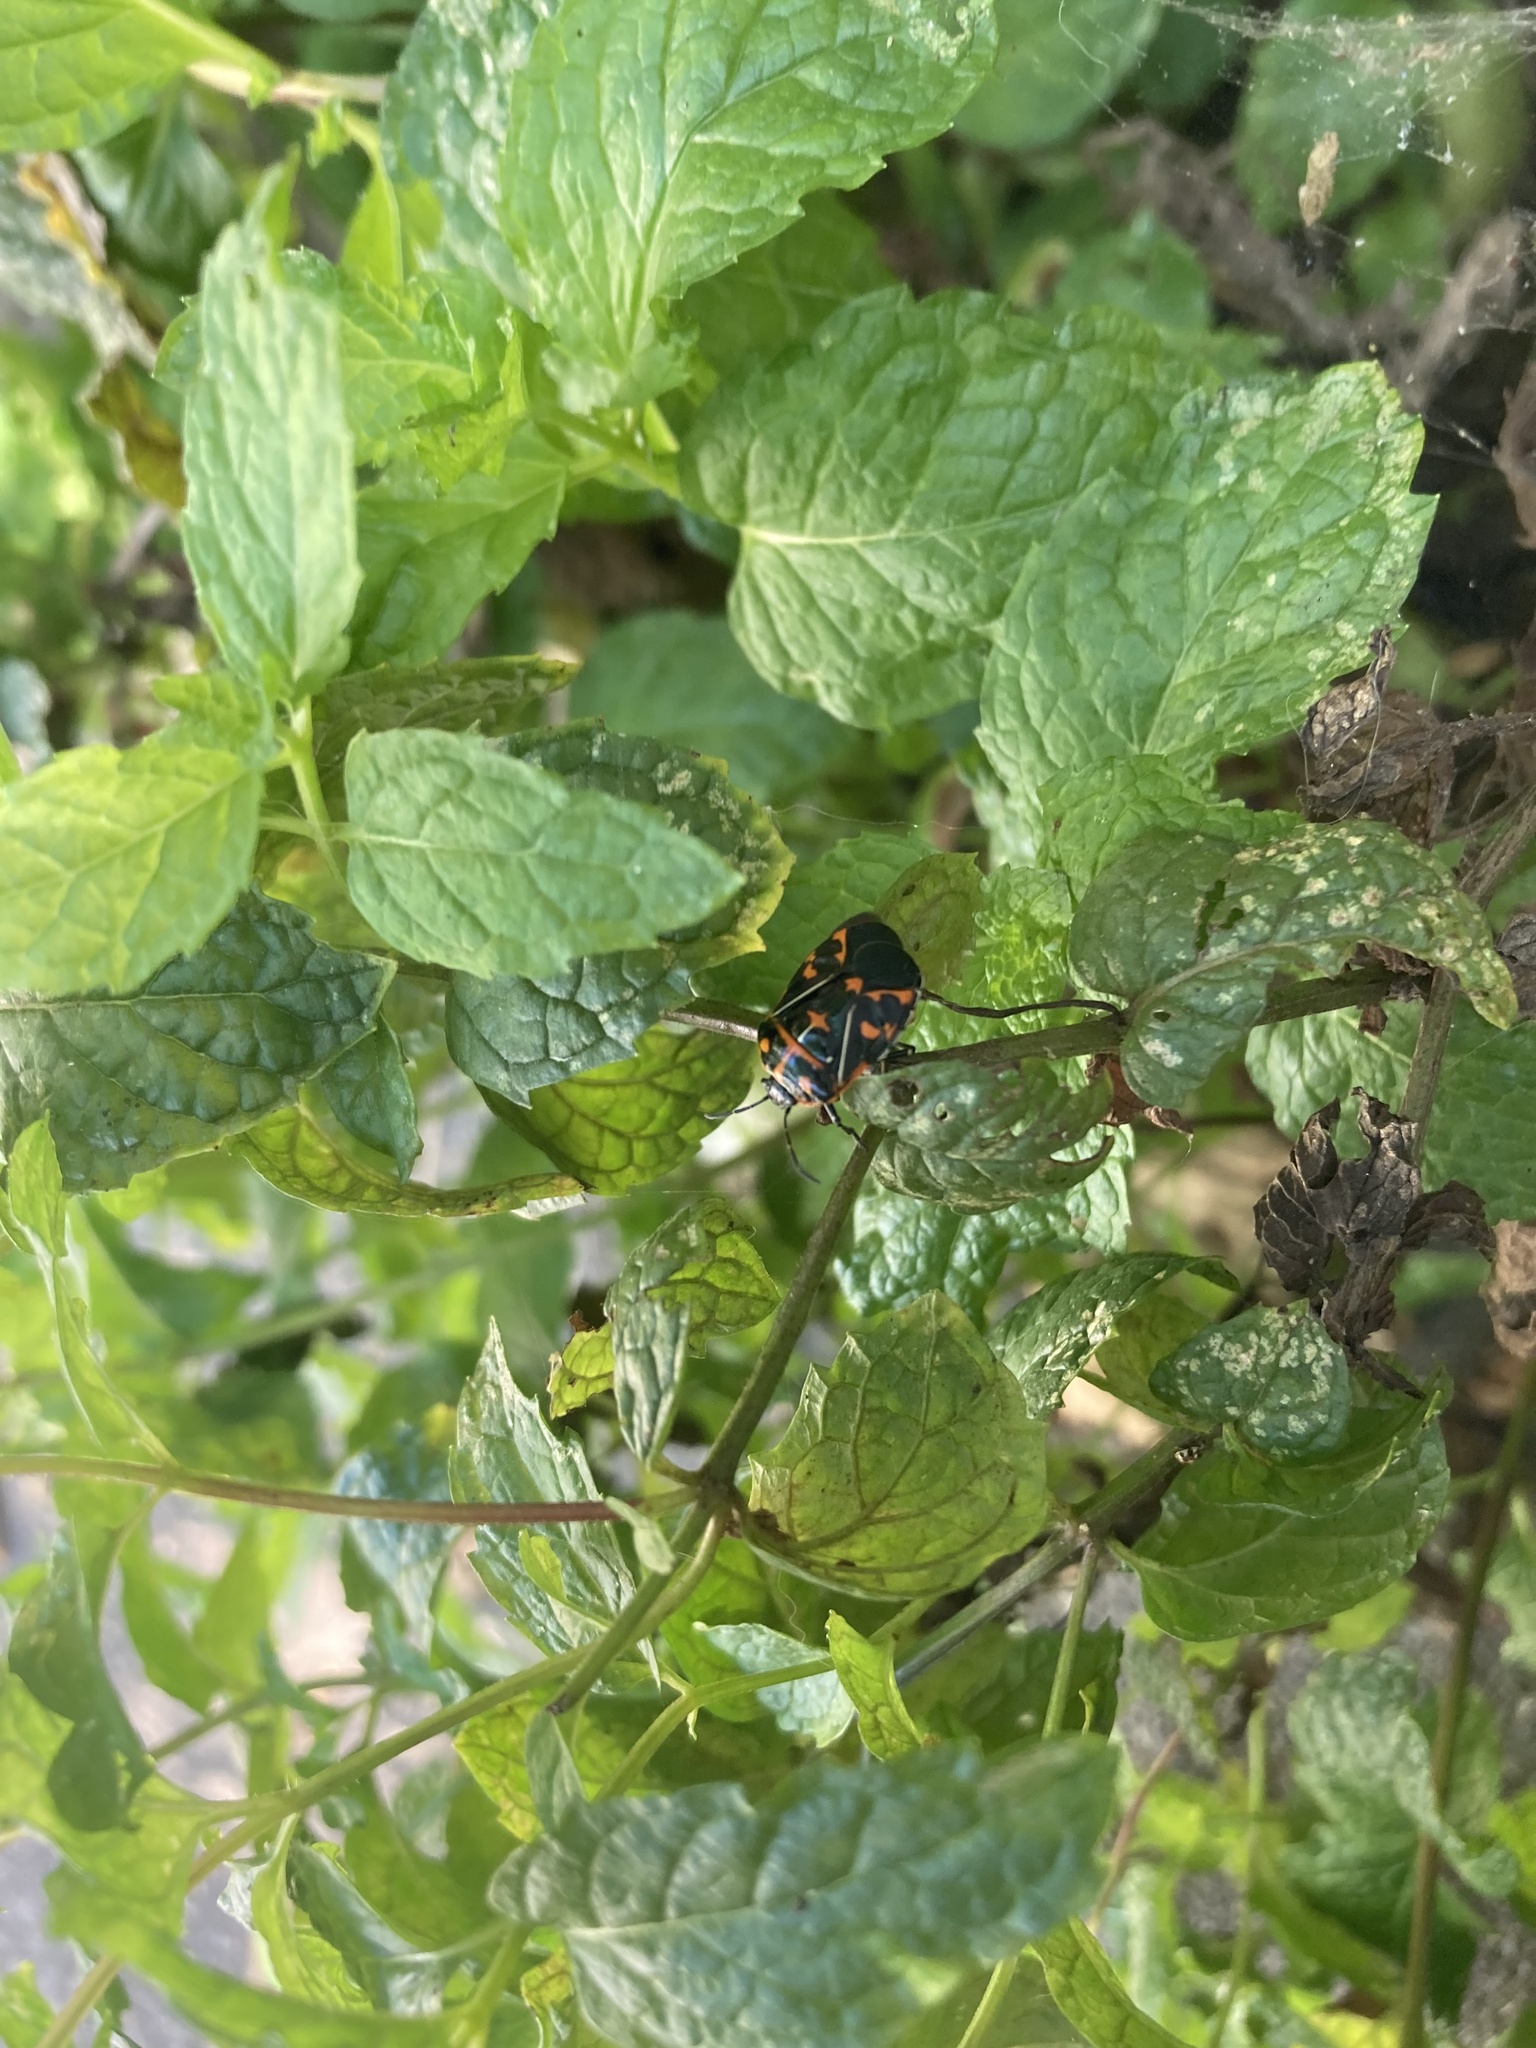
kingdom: Animalia
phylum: Arthropoda
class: Insecta
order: Hemiptera
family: Pentatomidae
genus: Murgantia
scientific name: Murgantia histrionica
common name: Harlequin bug
